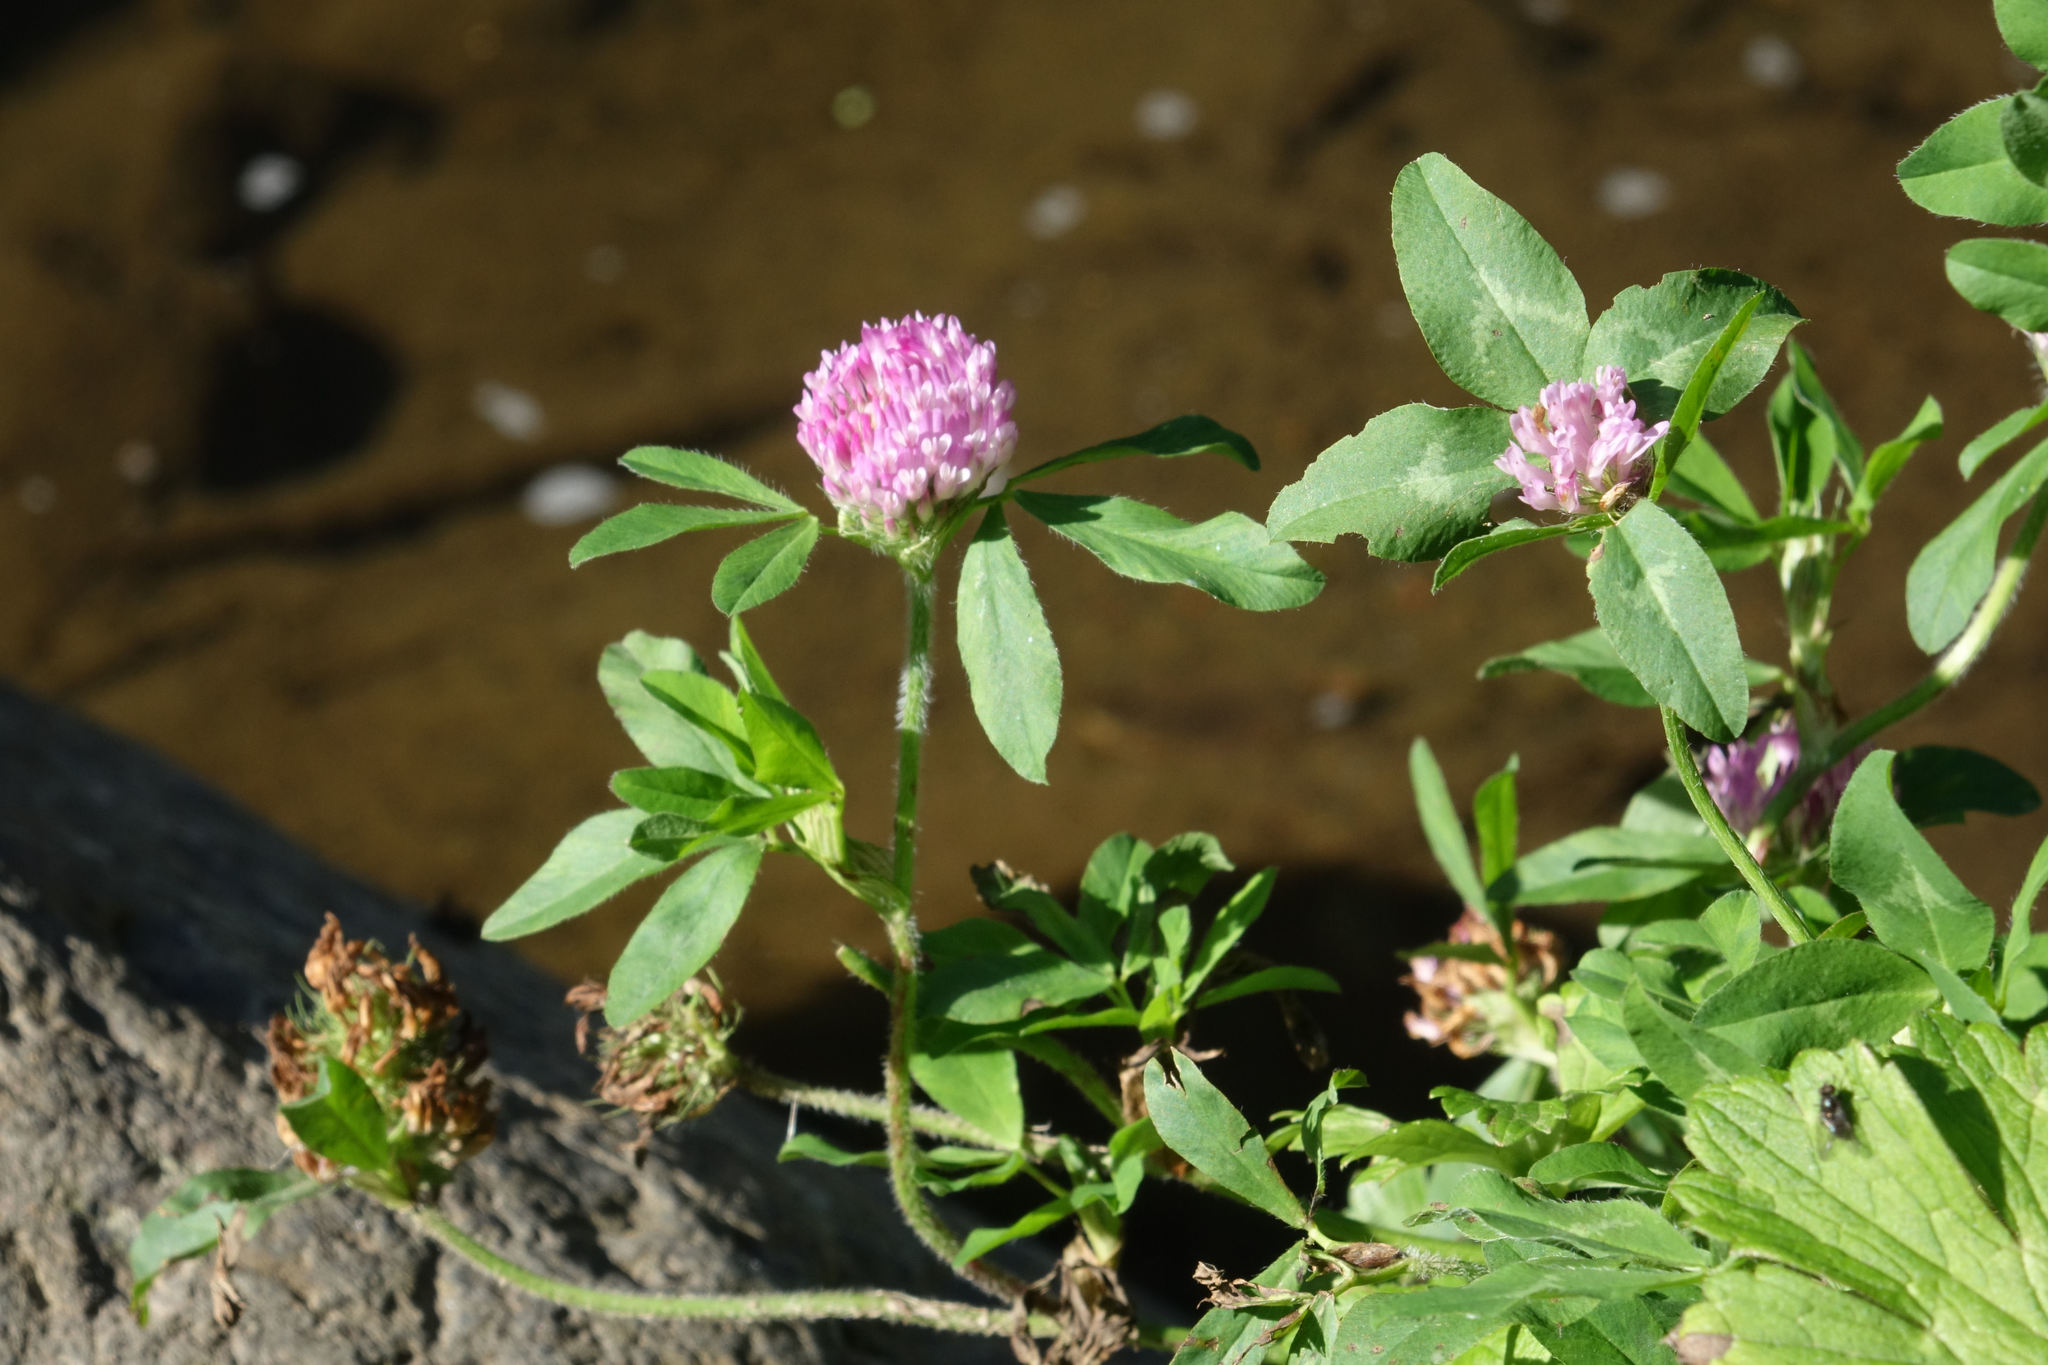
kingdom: Plantae
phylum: Tracheophyta
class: Magnoliopsida
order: Fabales
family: Fabaceae
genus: Trifolium
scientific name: Trifolium pratense
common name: Red clover
